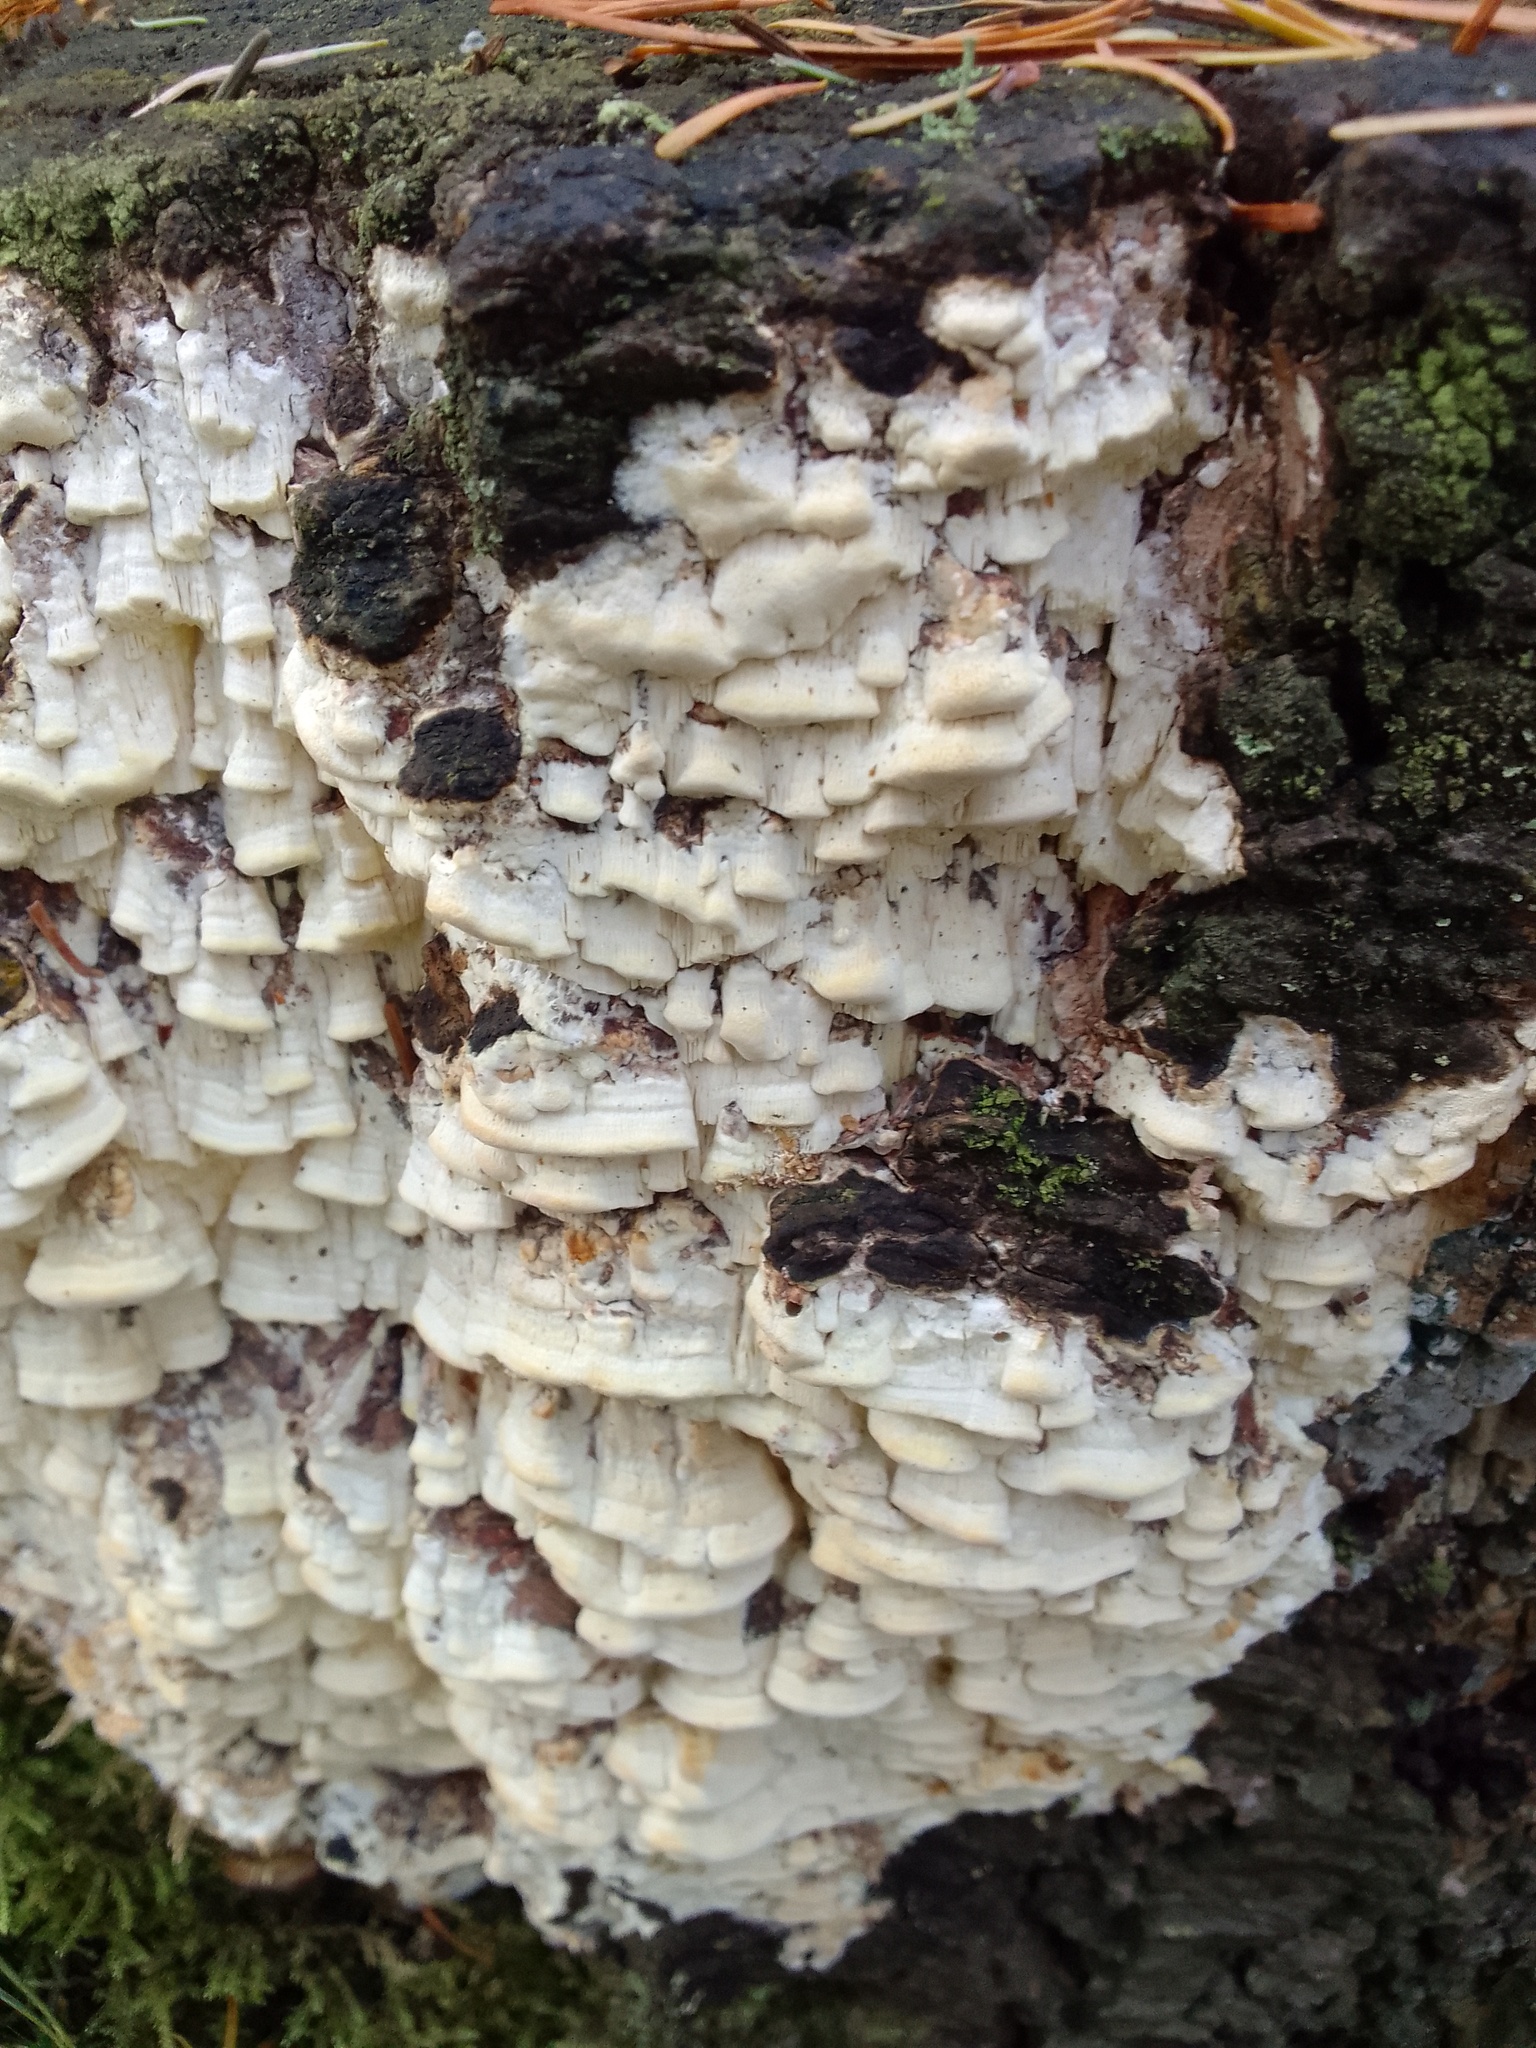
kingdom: Fungi
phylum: Basidiomycota
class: Agaricomycetes
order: Polyporales
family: Fomitopsidaceae
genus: Daedalea
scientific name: Daedalea xantha
